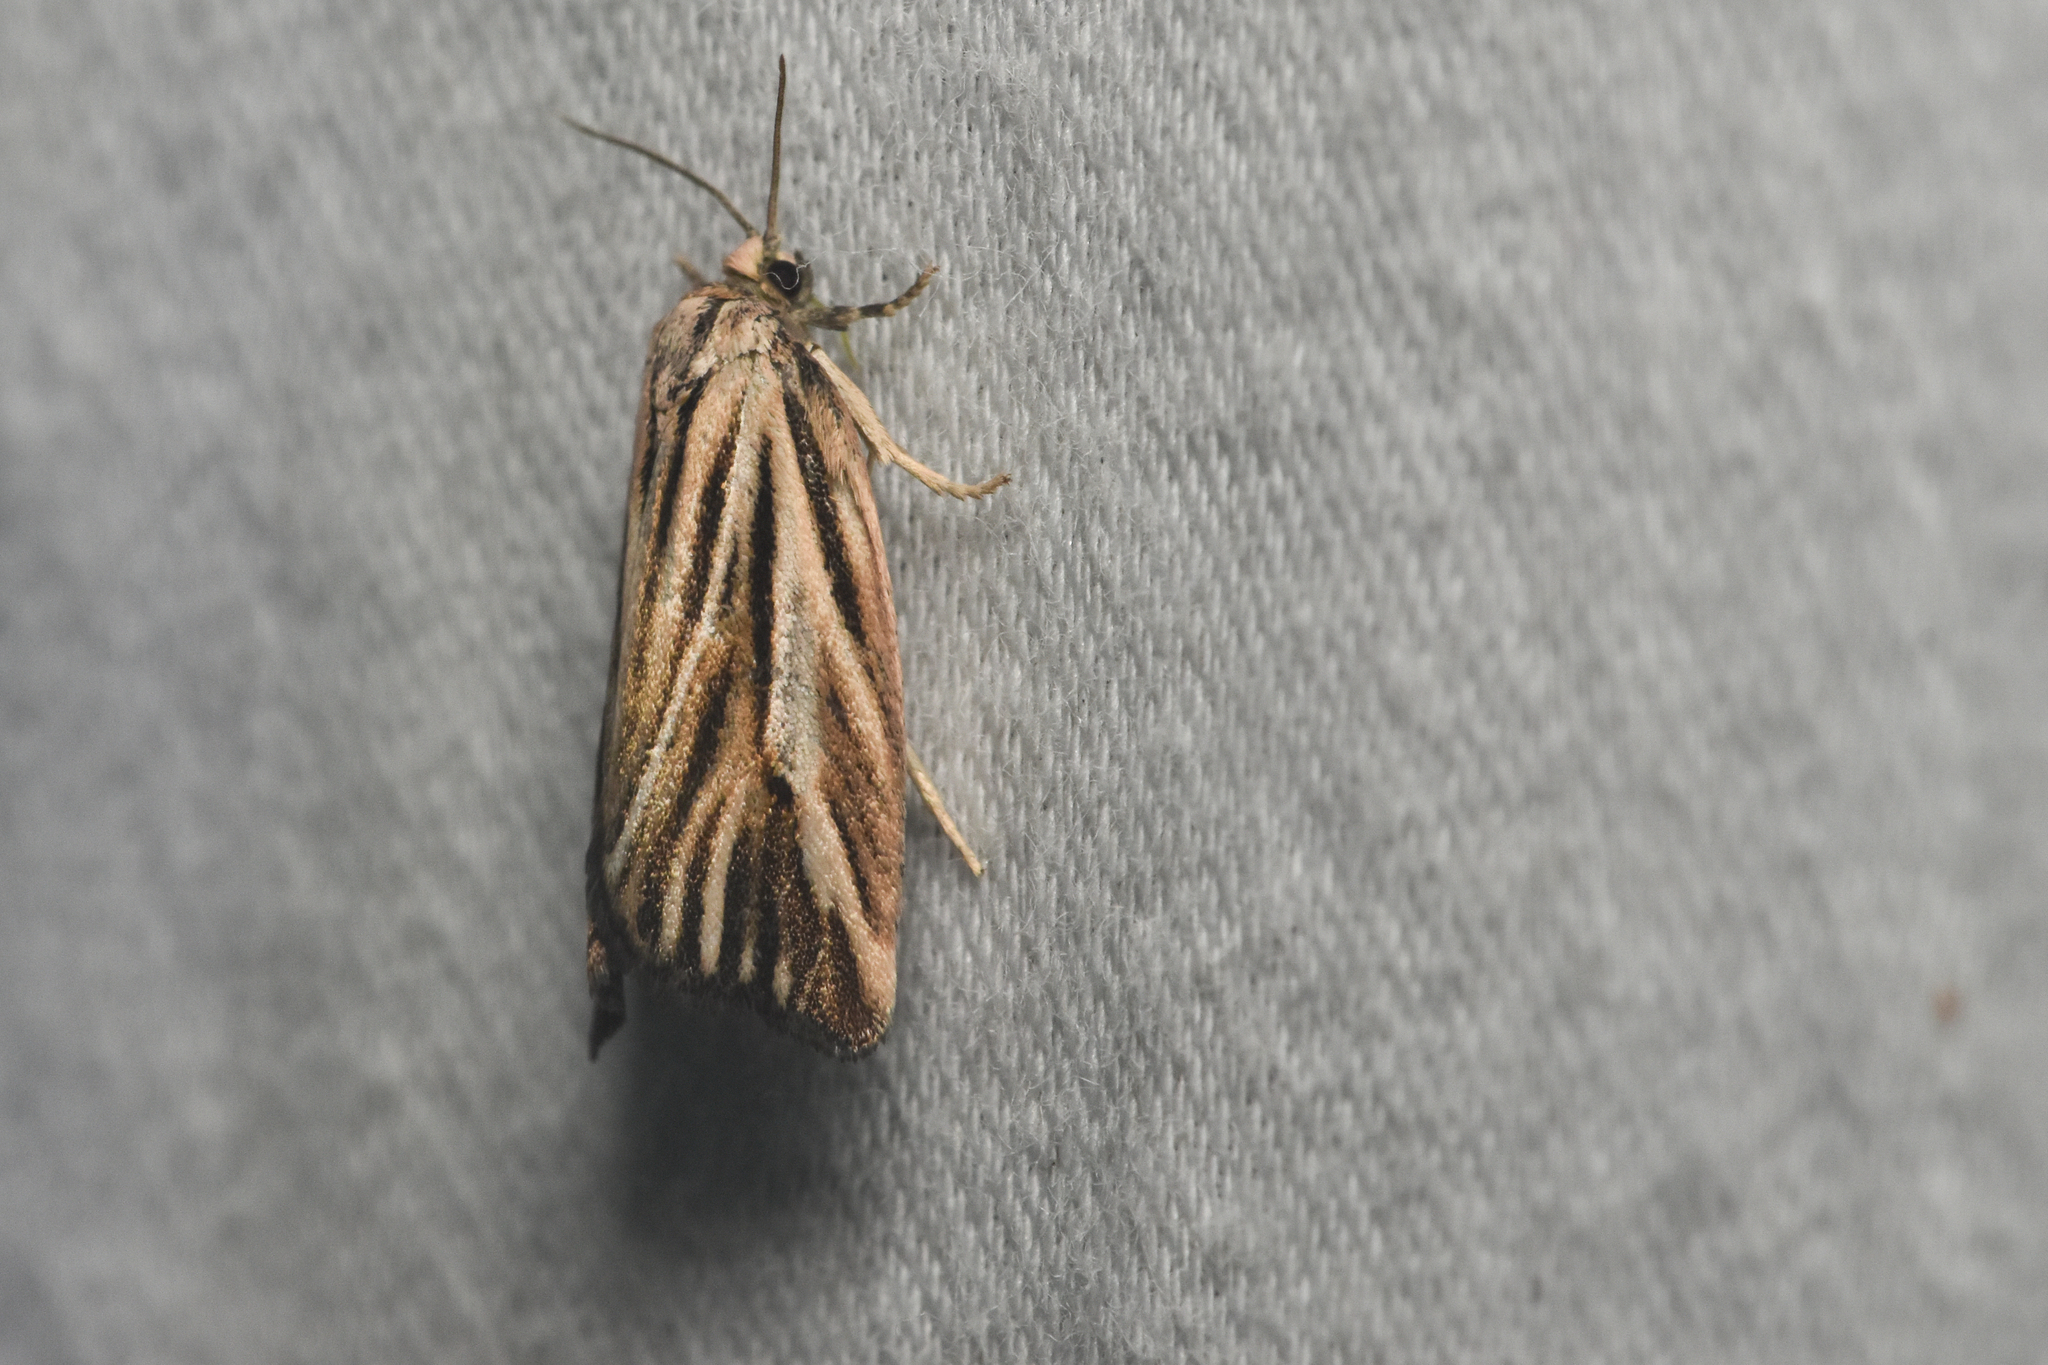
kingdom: Animalia
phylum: Arthropoda
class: Insecta
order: Lepidoptera
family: Tortricidae
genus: Archips
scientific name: Archips strianus
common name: Striated tortrix moth
